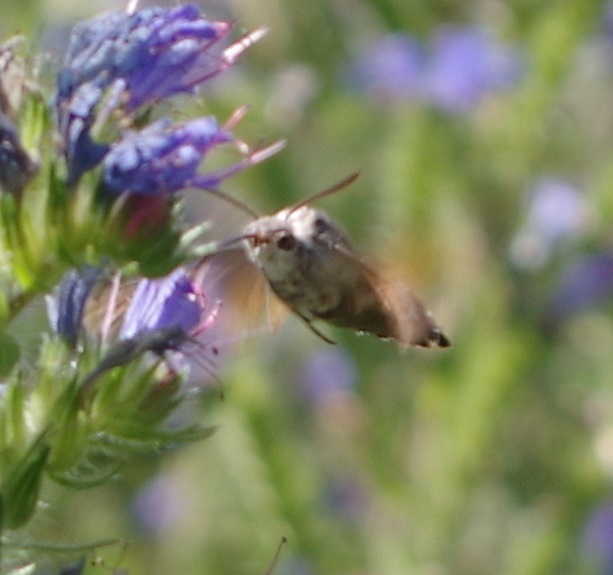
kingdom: Animalia
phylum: Arthropoda
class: Insecta
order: Lepidoptera
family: Sphingidae
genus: Macroglossum
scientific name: Macroglossum stellatarum
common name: Humming-bird hawk-moth
